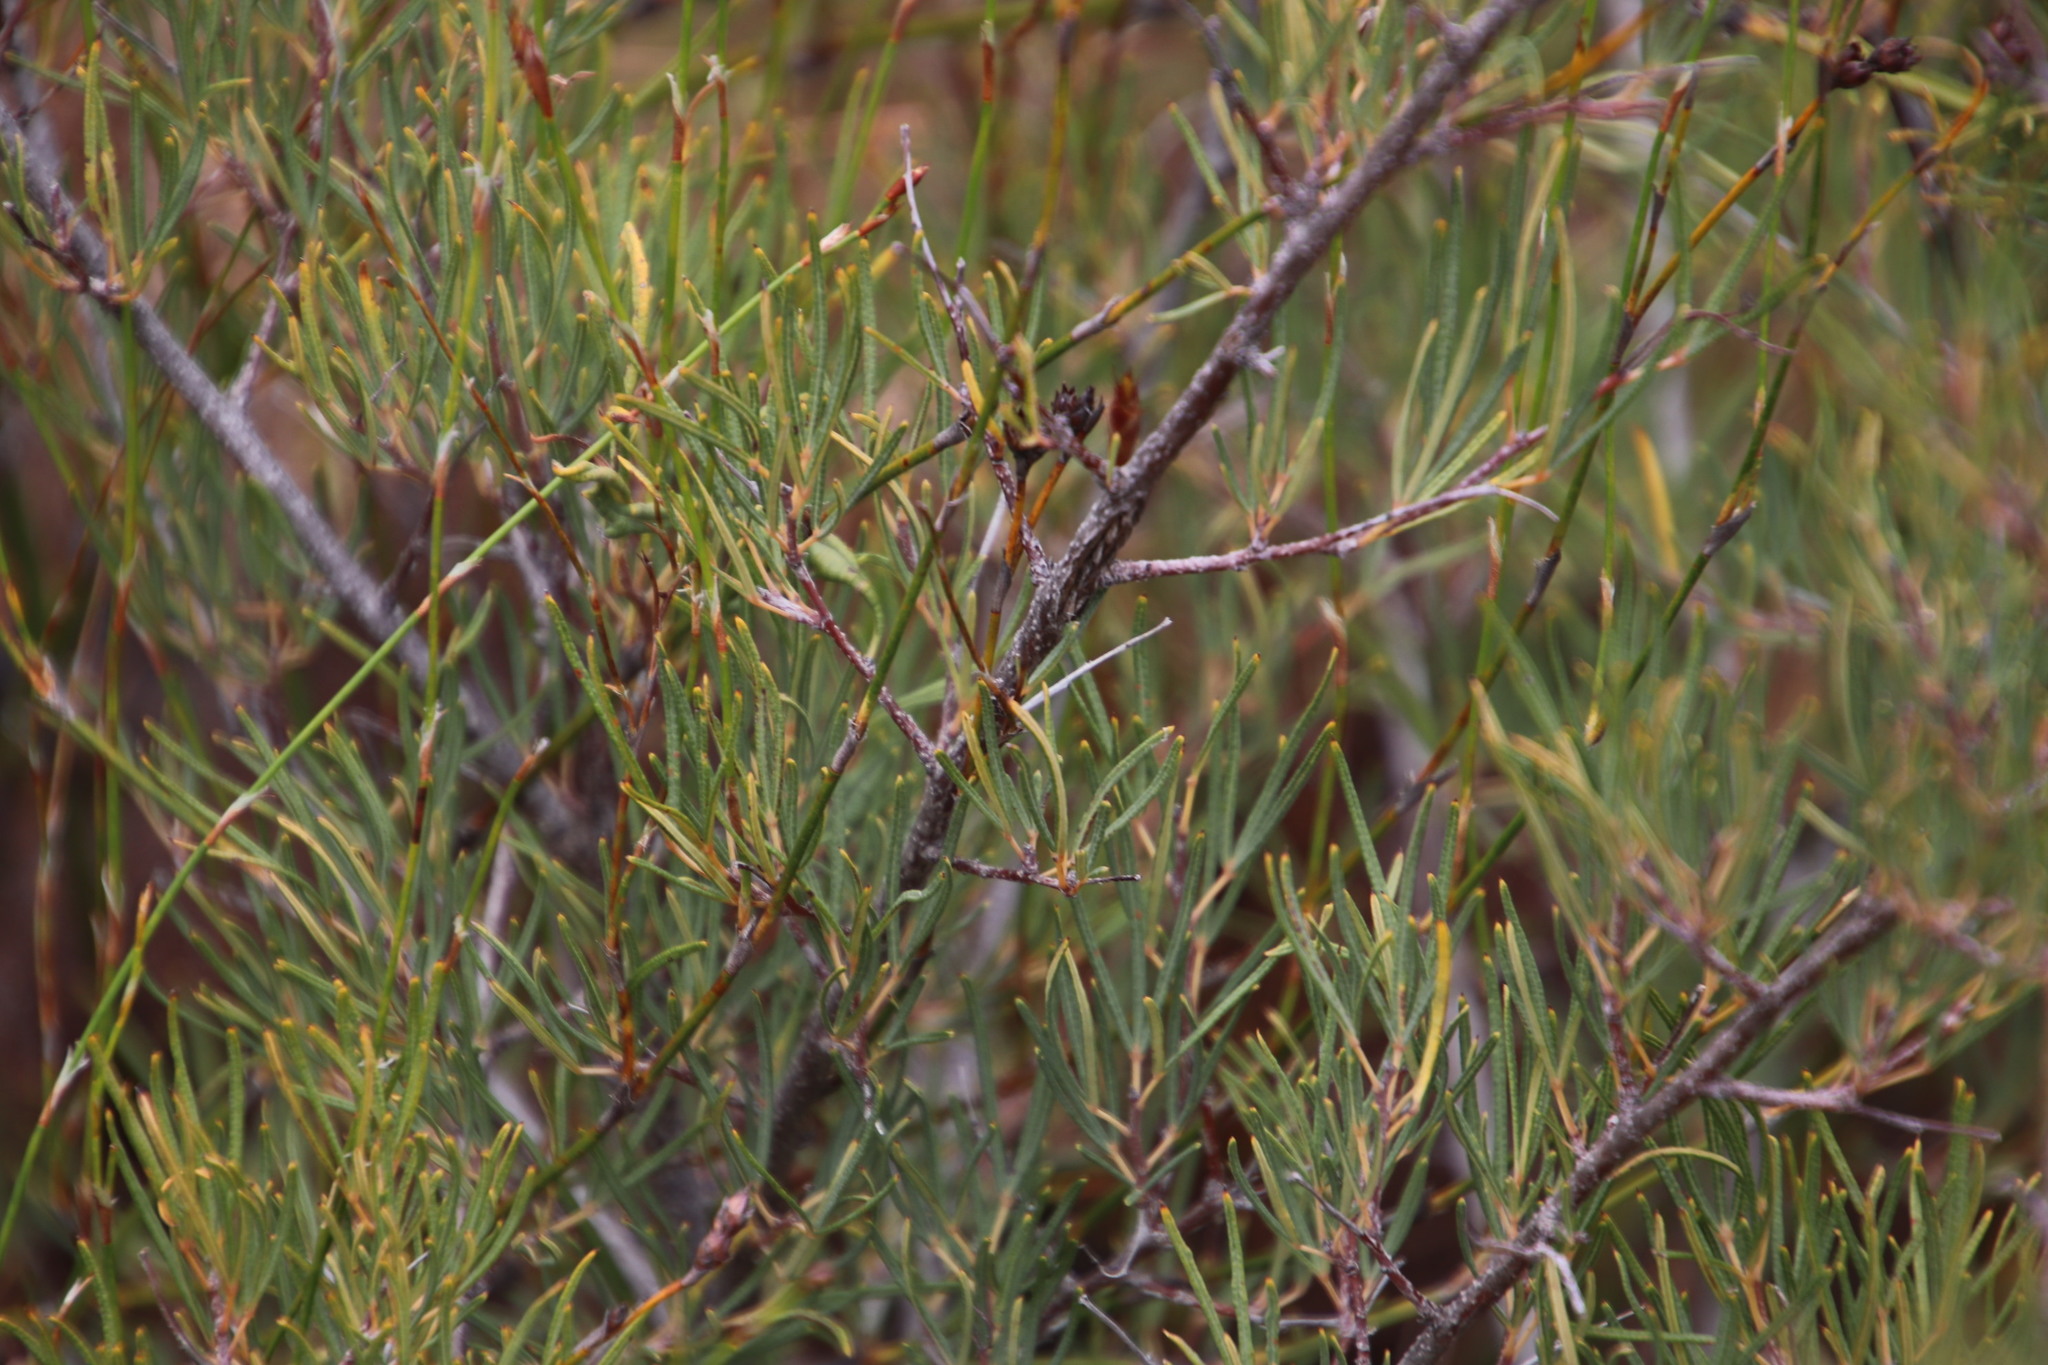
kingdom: Plantae
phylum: Tracheophyta
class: Magnoliopsida
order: Sapindales
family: Anacardiaceae
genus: Searsia
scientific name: Searsia rosmarinifolia
